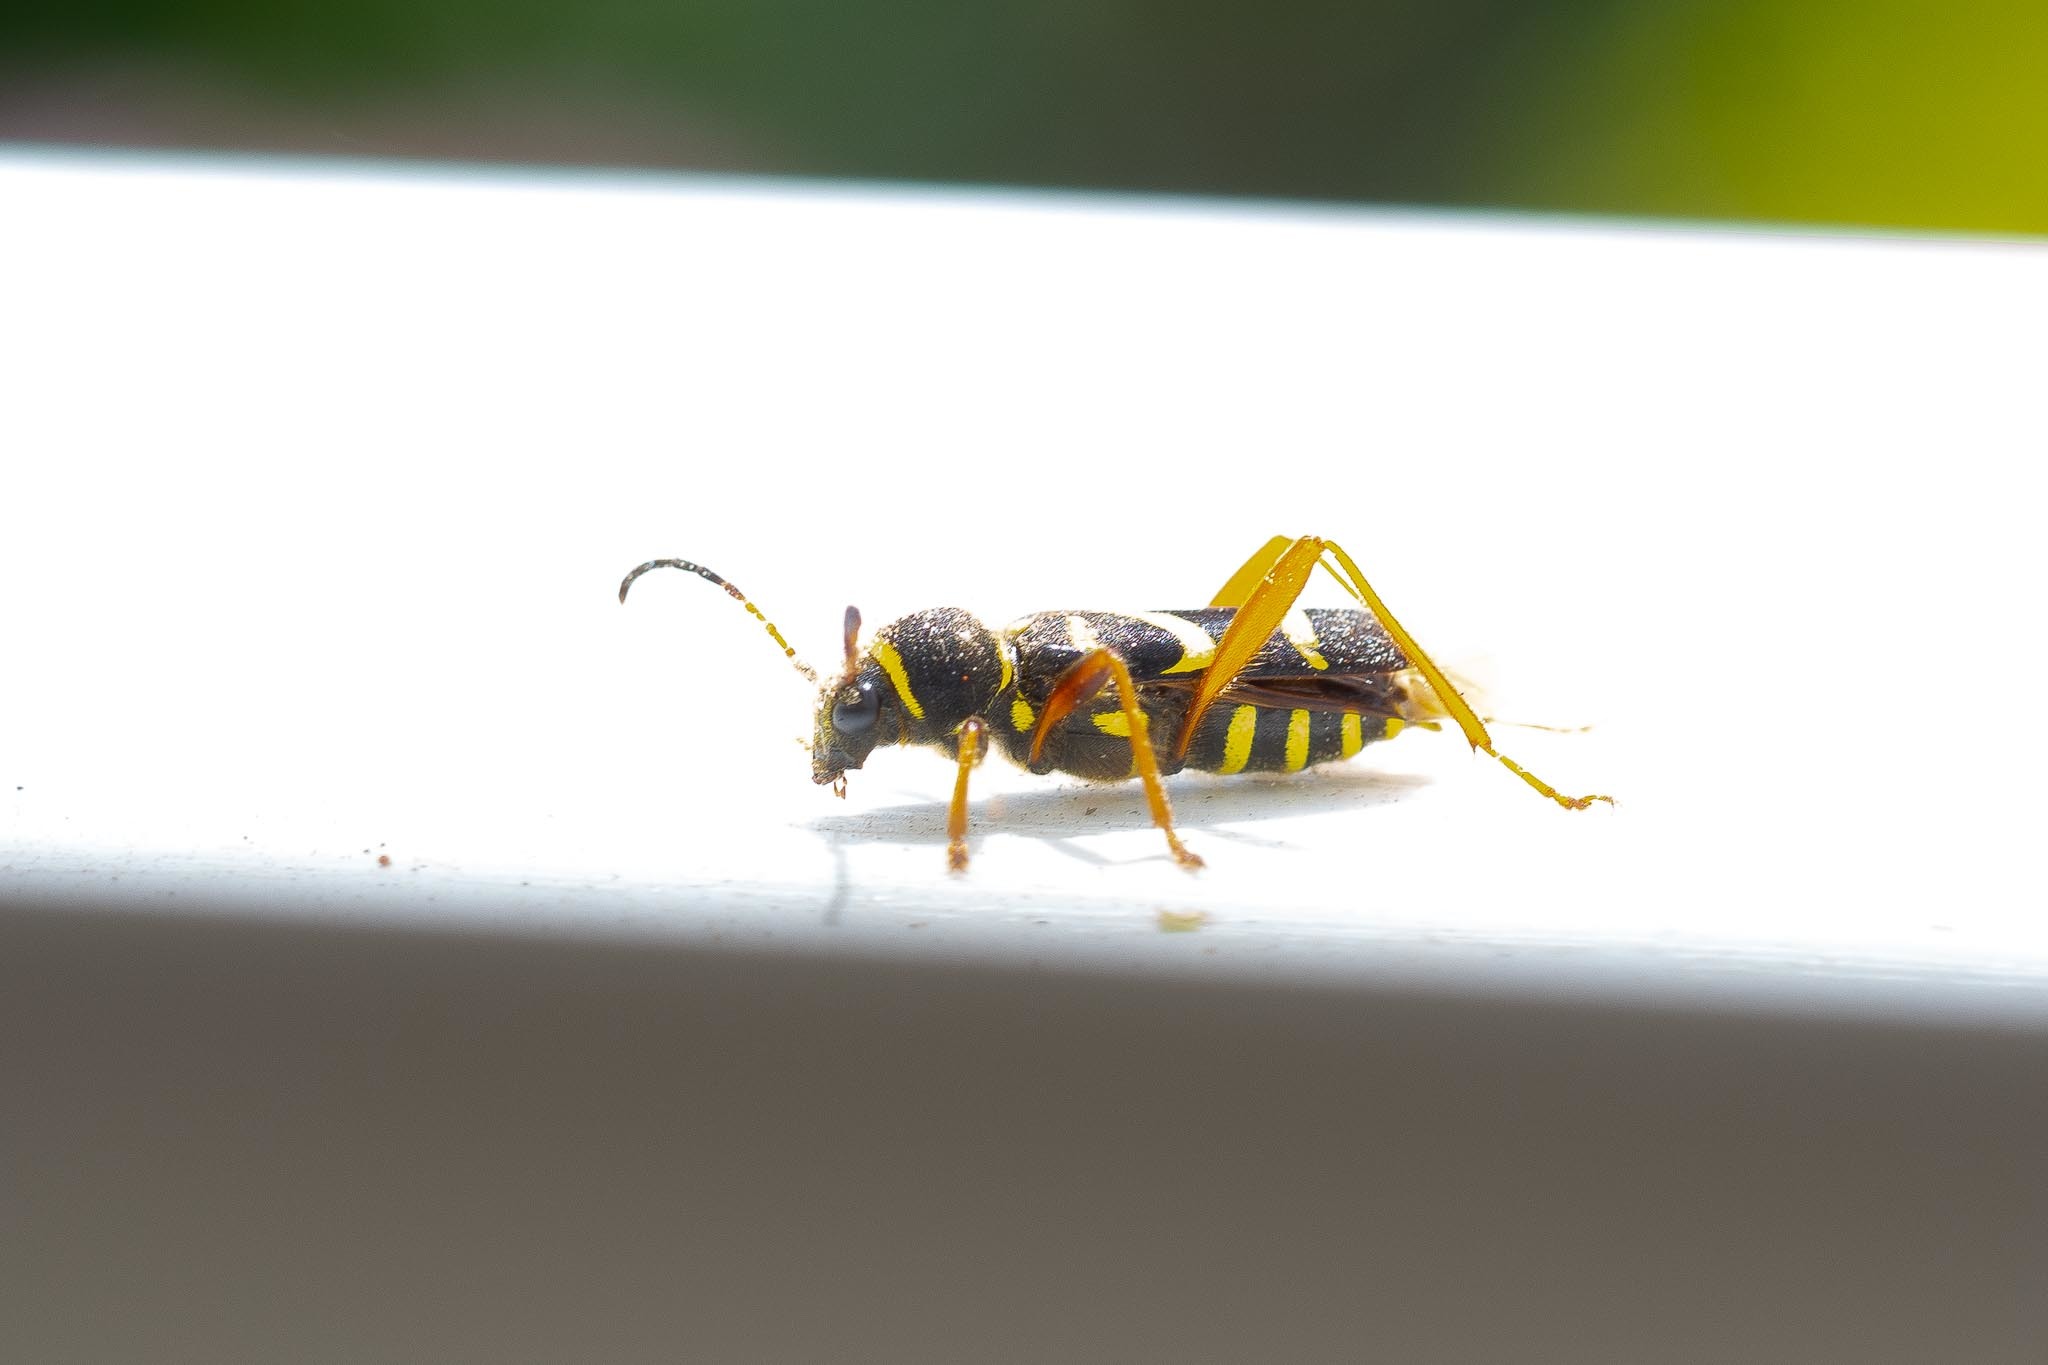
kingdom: Animalia
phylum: Arthropoda
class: Insecta
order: Coleoptera
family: Cerambycidae
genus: Clytus
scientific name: Clytus arietis
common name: Wasp beetle
